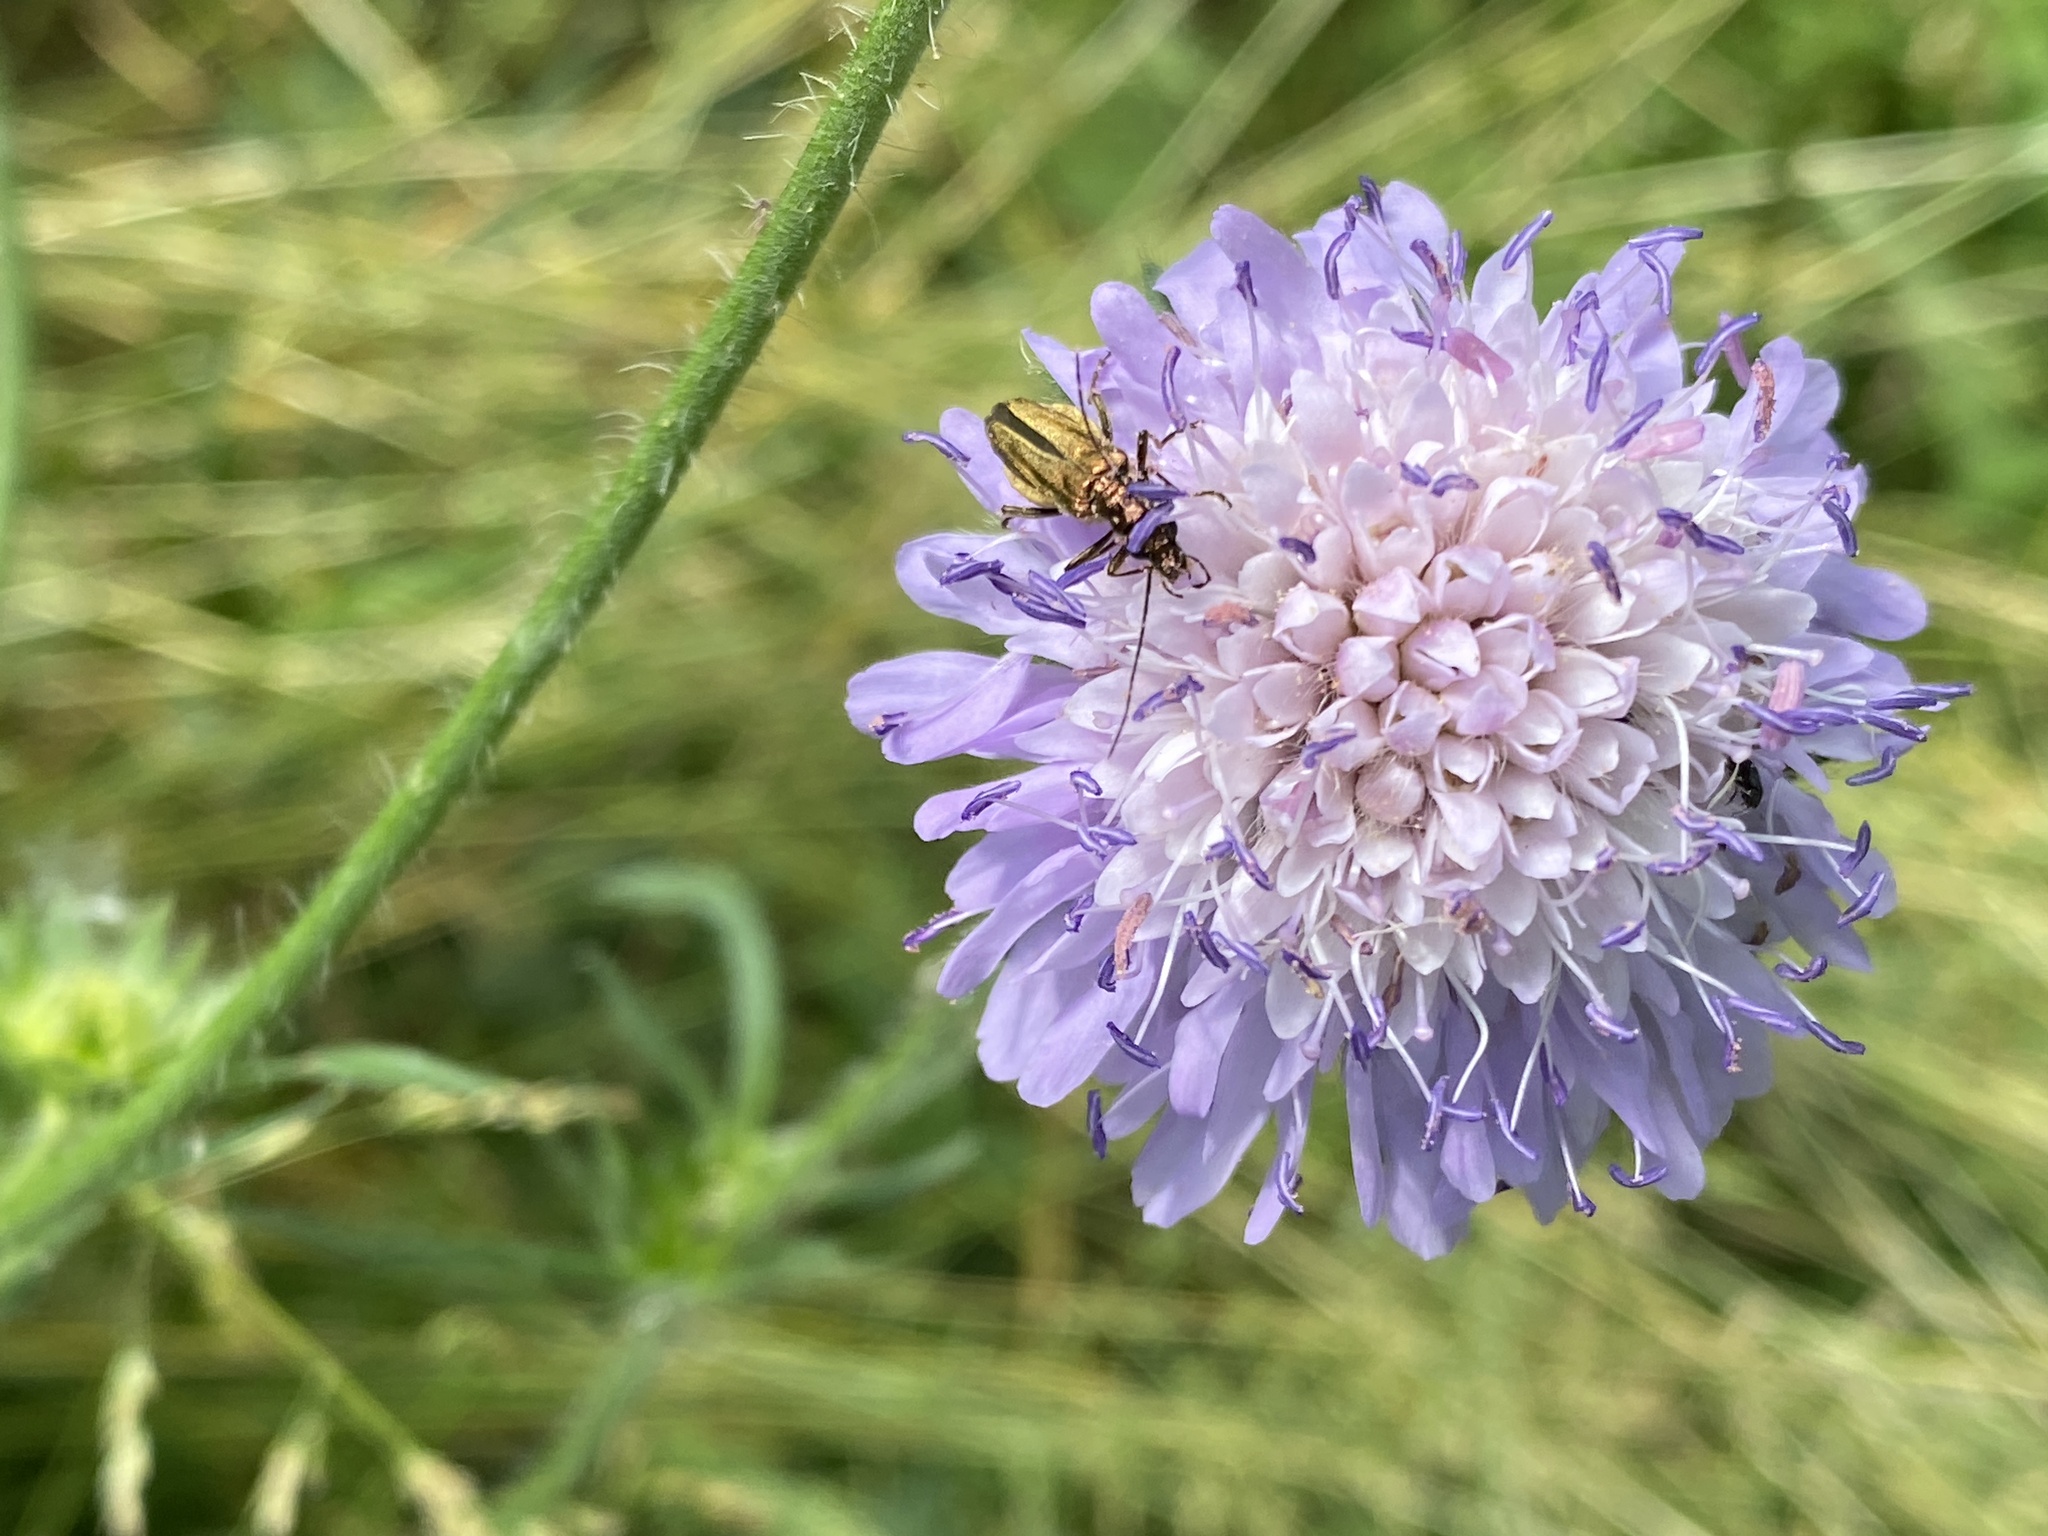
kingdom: Animalia
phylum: Arthropoda
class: Insecta
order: Coleoptera
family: Oedemeridae
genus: Oedemera
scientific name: Oedemera nobilis
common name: Swollen-thighed beetle
